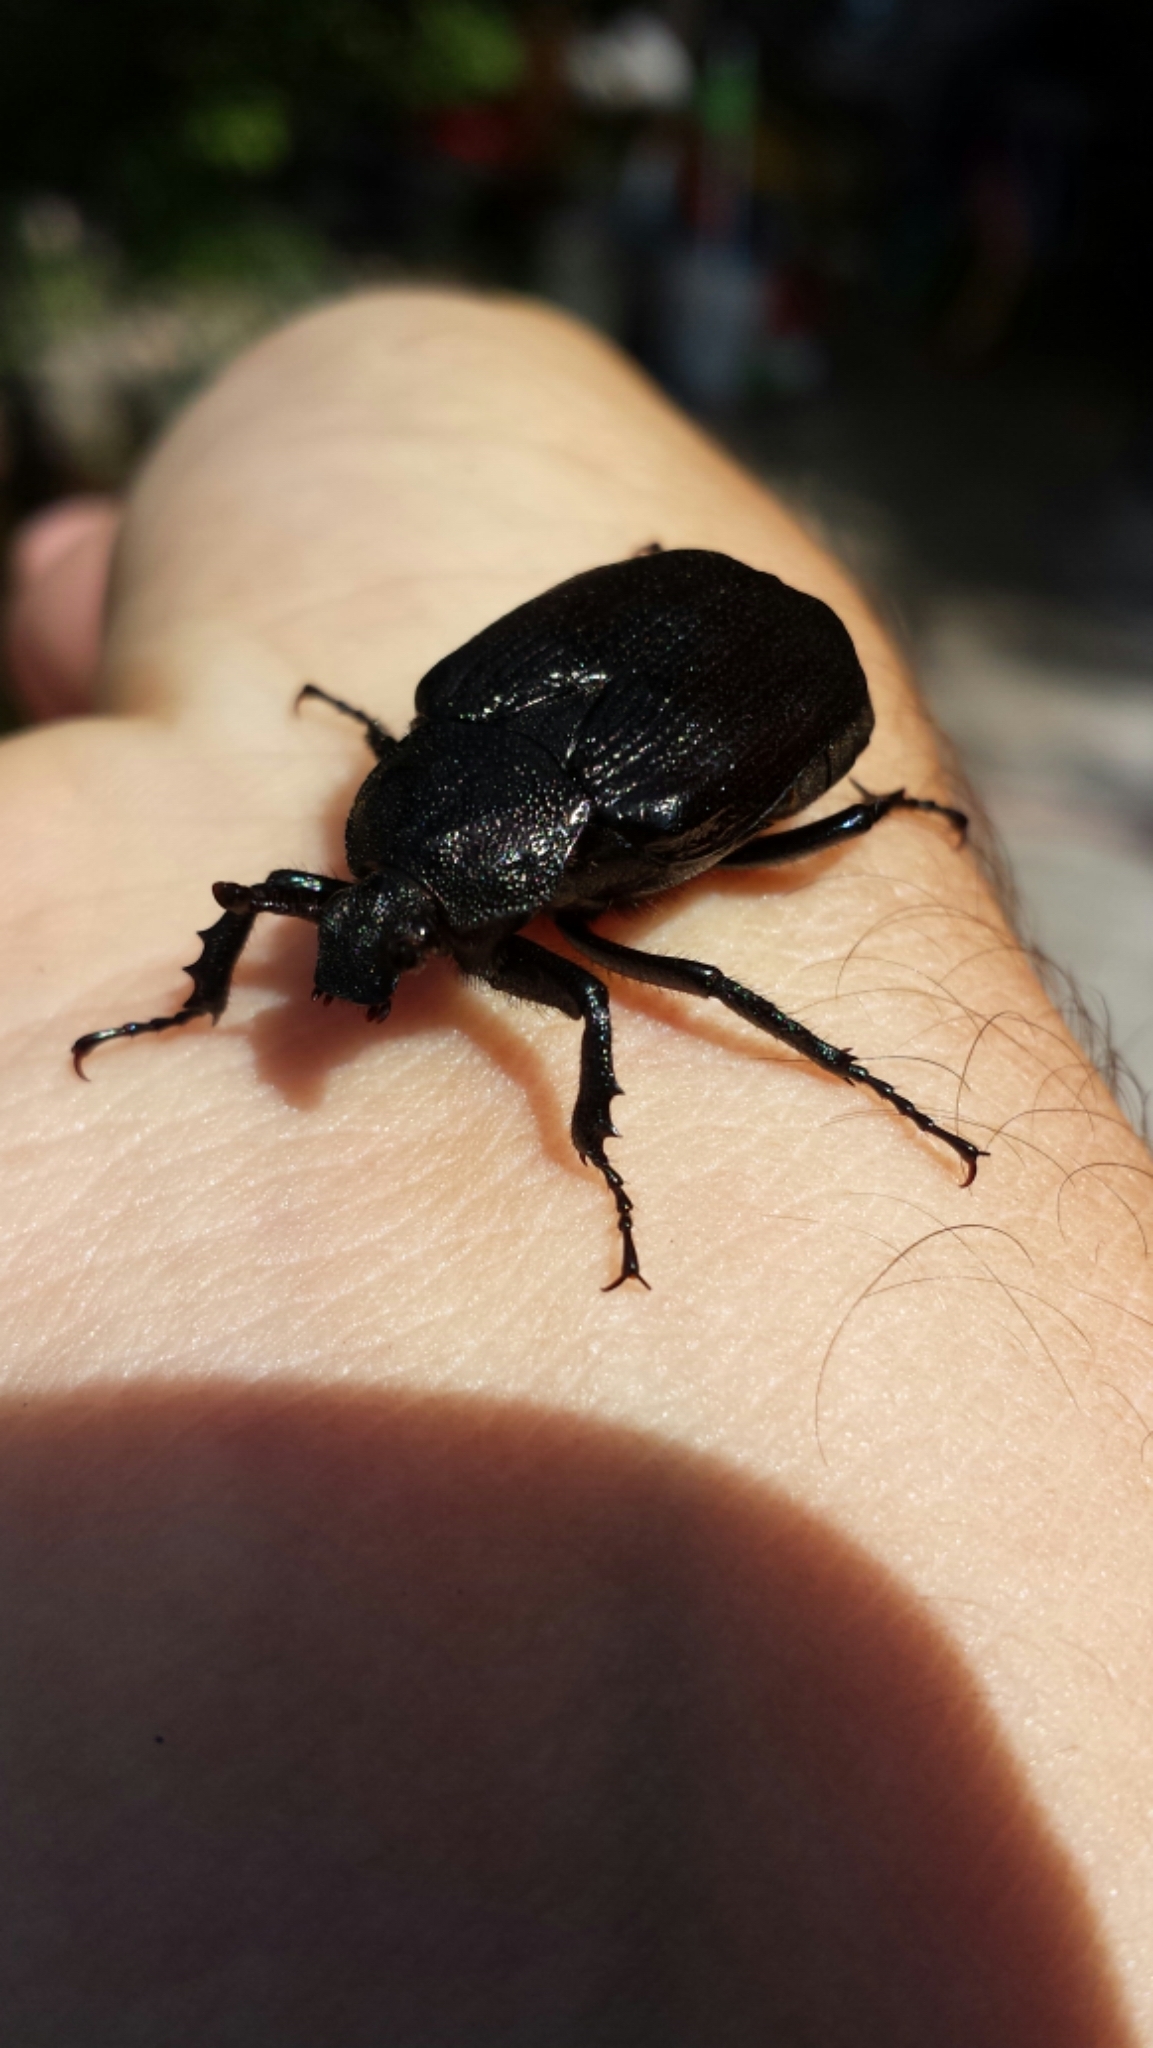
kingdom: Animalia
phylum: Arthropoda
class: Insecta
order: Coleoptera
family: Scarabaeidae
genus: Osmoderma
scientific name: Osmoderma scabra
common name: Rough hermit beetle
